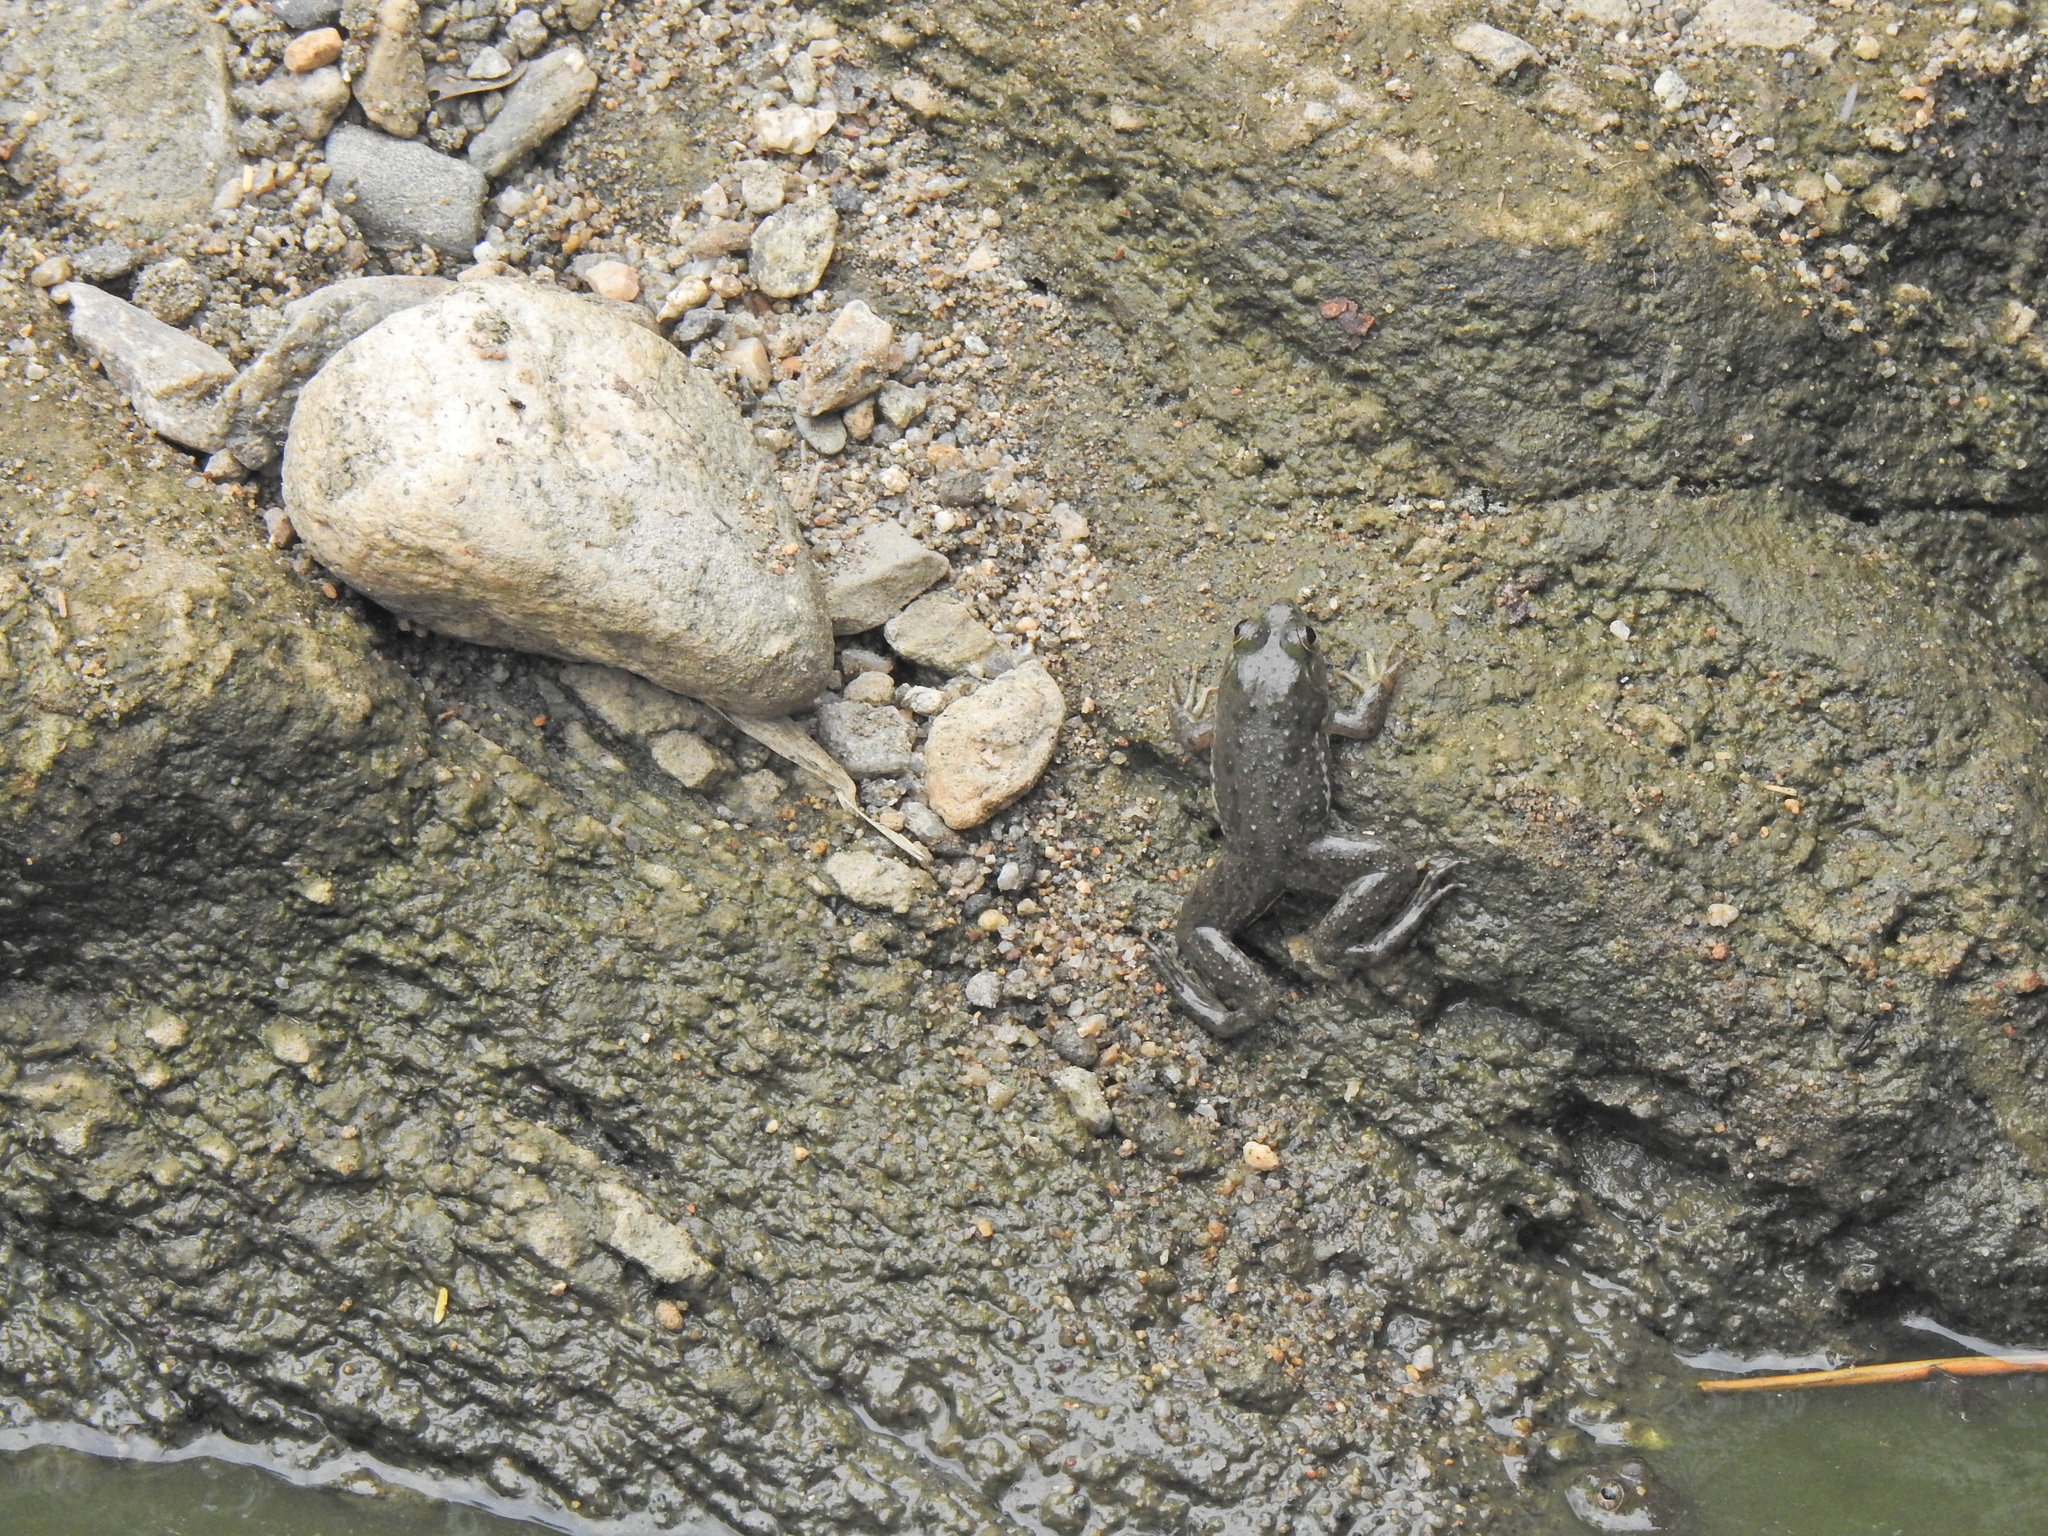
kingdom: Animalia
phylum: Chordata
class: Amphibia
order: Anura
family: Dicroglossidae
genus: Euphlyctis
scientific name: Euphlyctis cyanophlyctis
